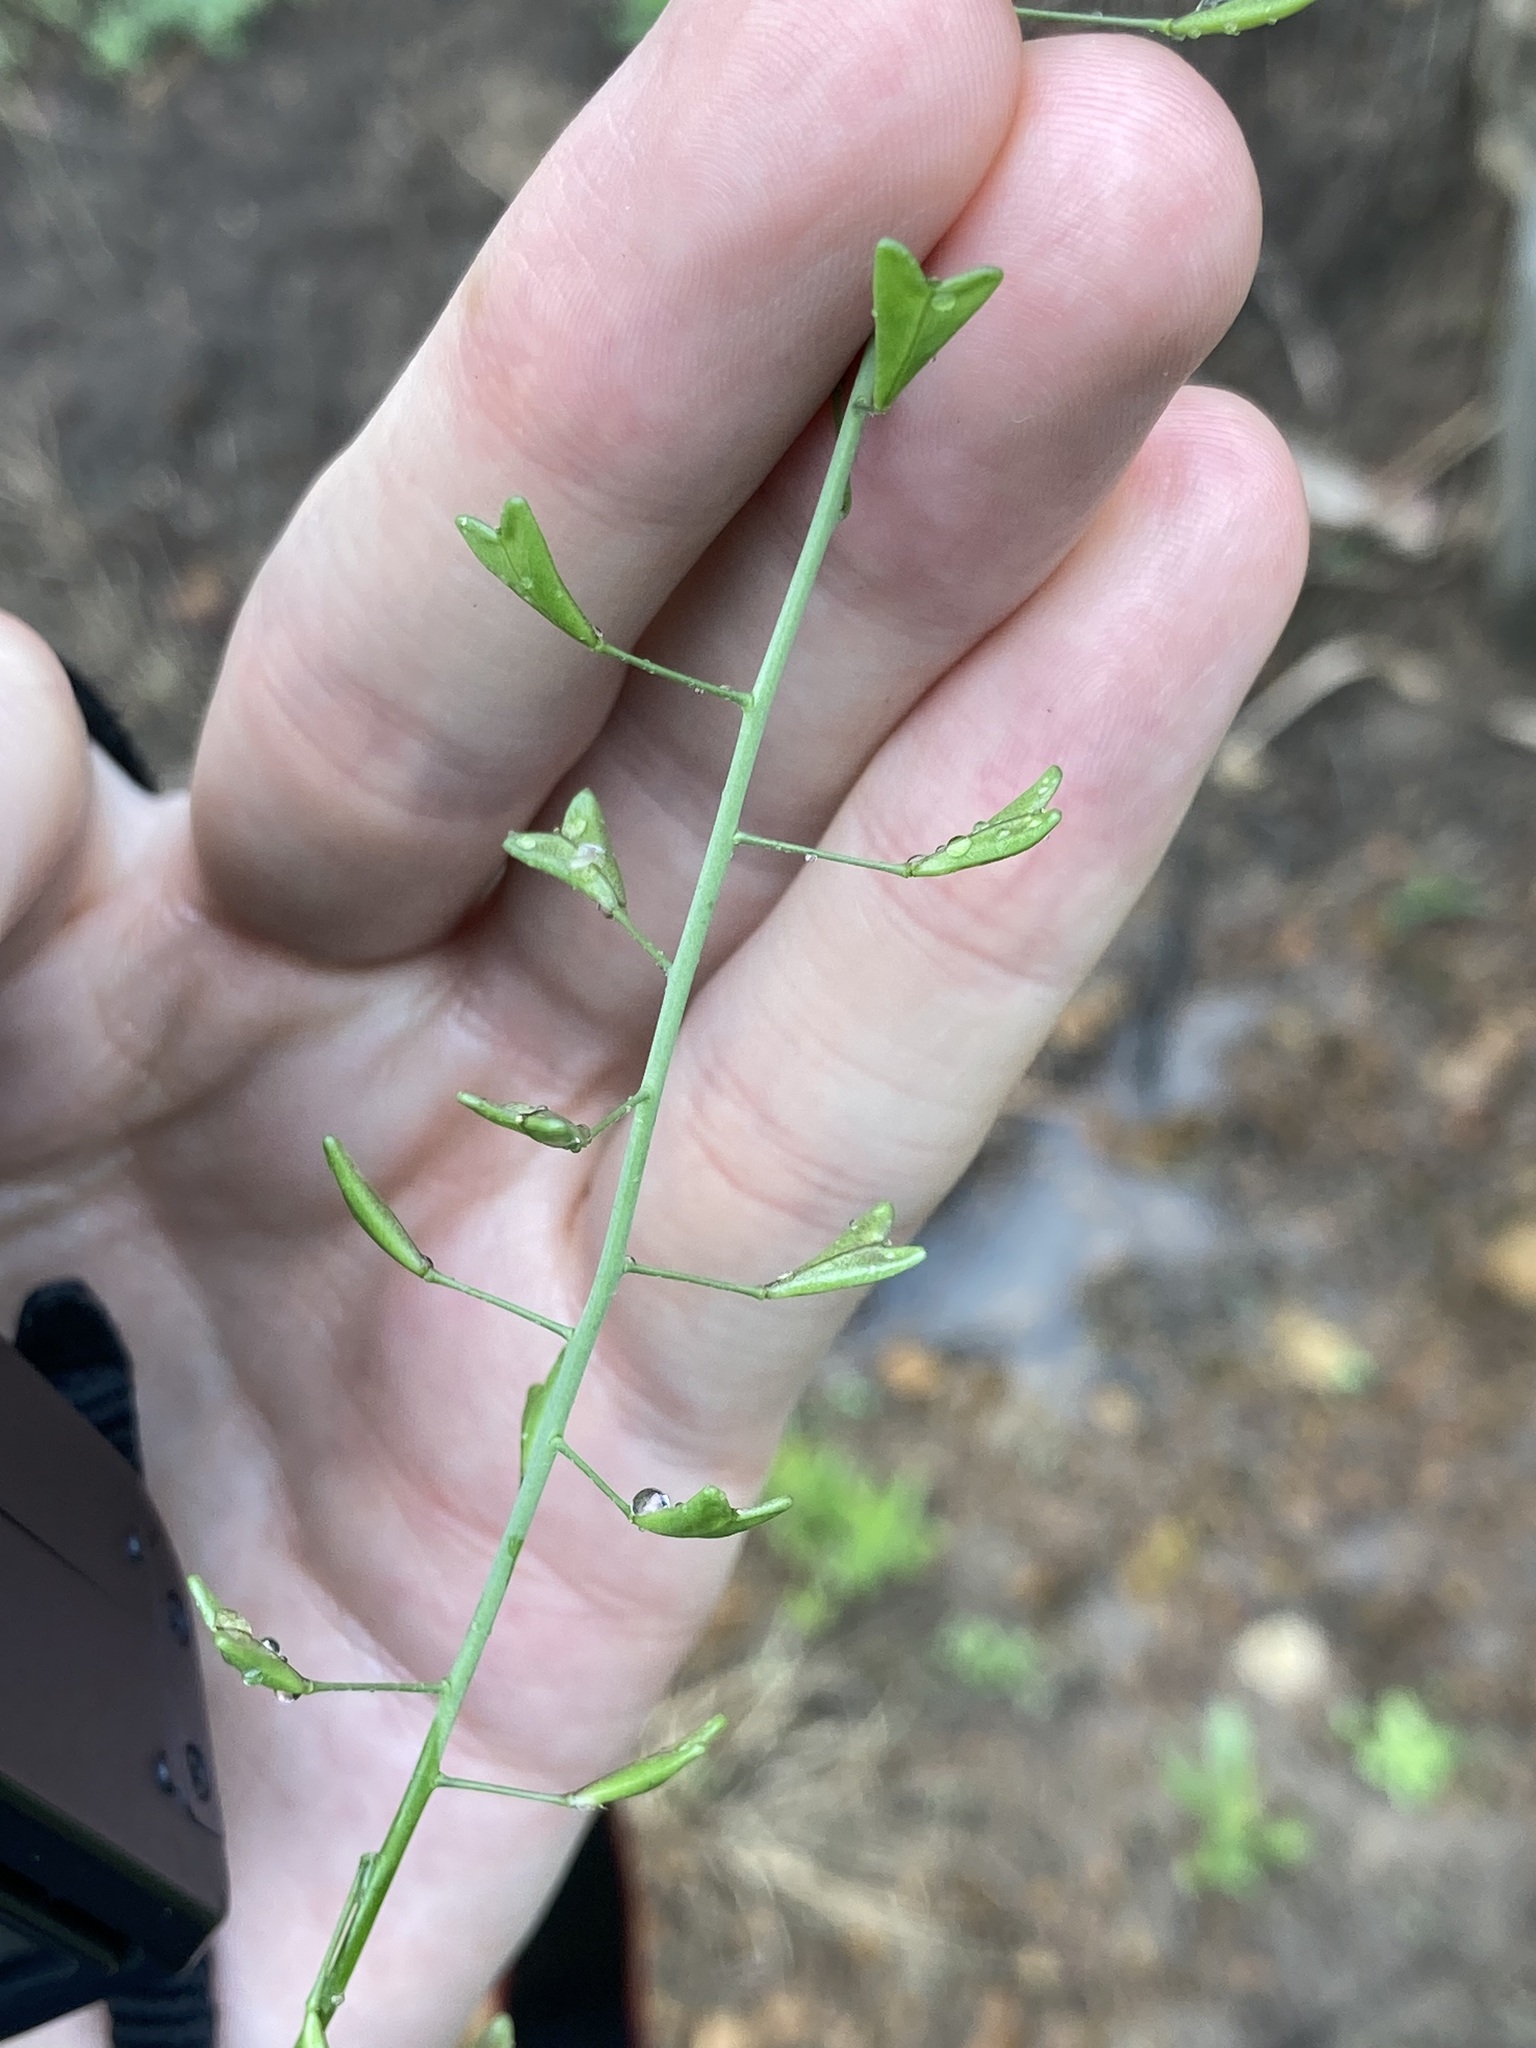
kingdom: Plantae
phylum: Tracheophyta
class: Magnoliopsida
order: Brassicales
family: Brassicaceae
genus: Capsella
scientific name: Capsella bursa-pastoris
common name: Shepherd's purse
